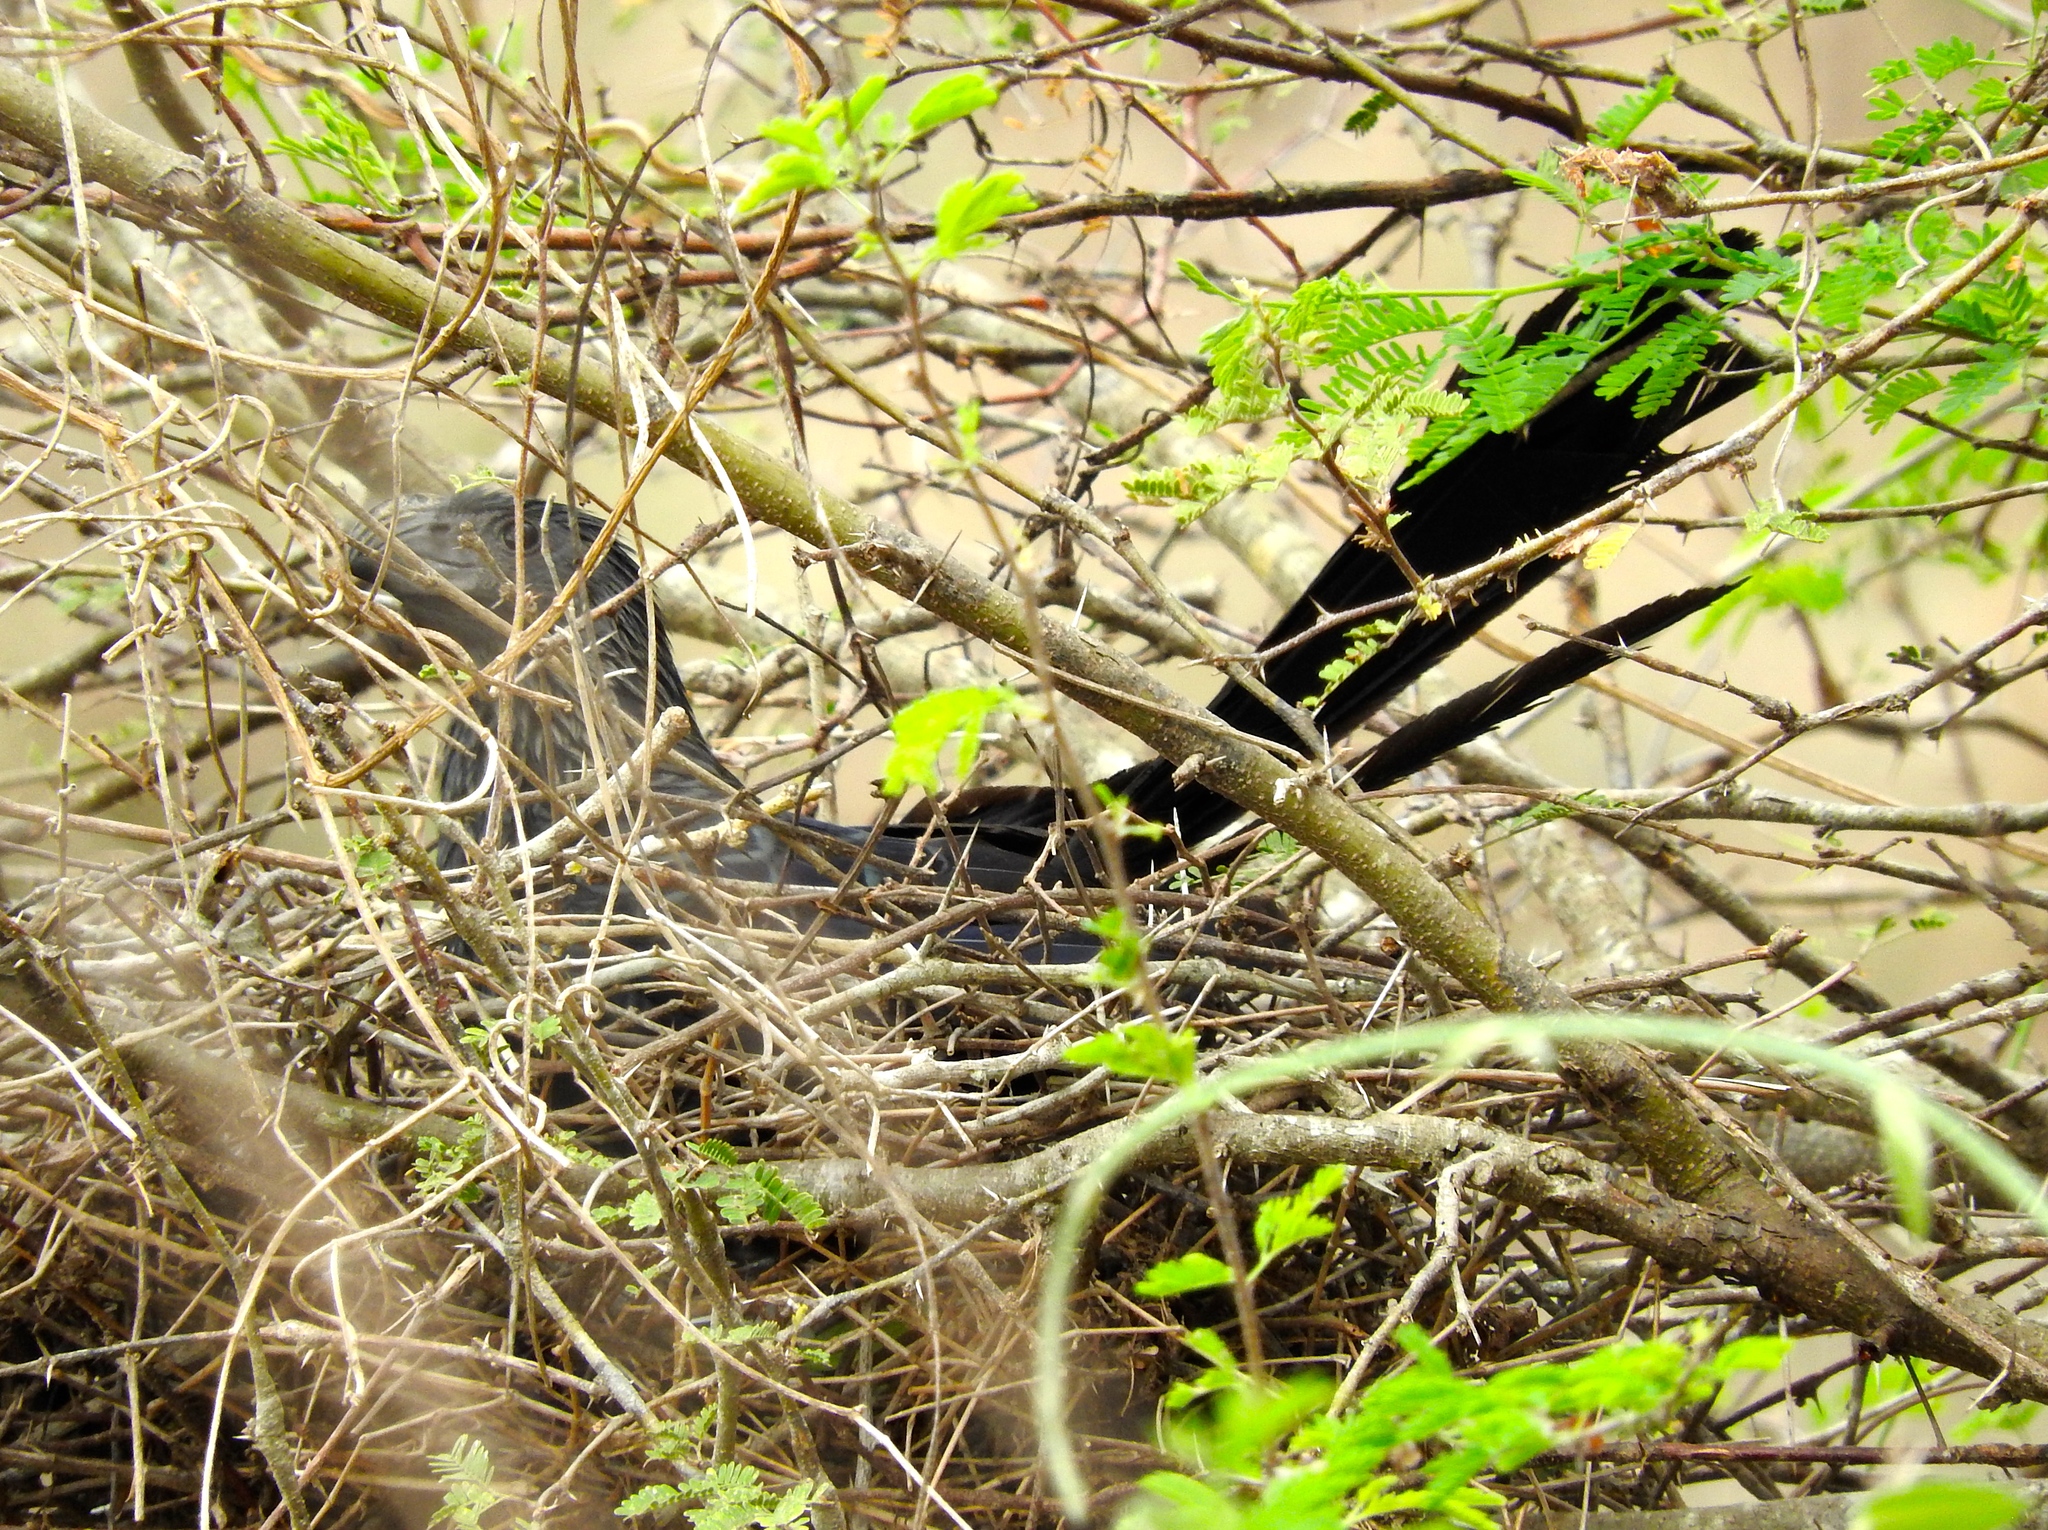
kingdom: Animalia
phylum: Chordata
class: Aves
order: Cuculiformes
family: Cuculidae
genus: Crotophaga
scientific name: Crotophaga sulcirostris
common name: Groove-billed ani
